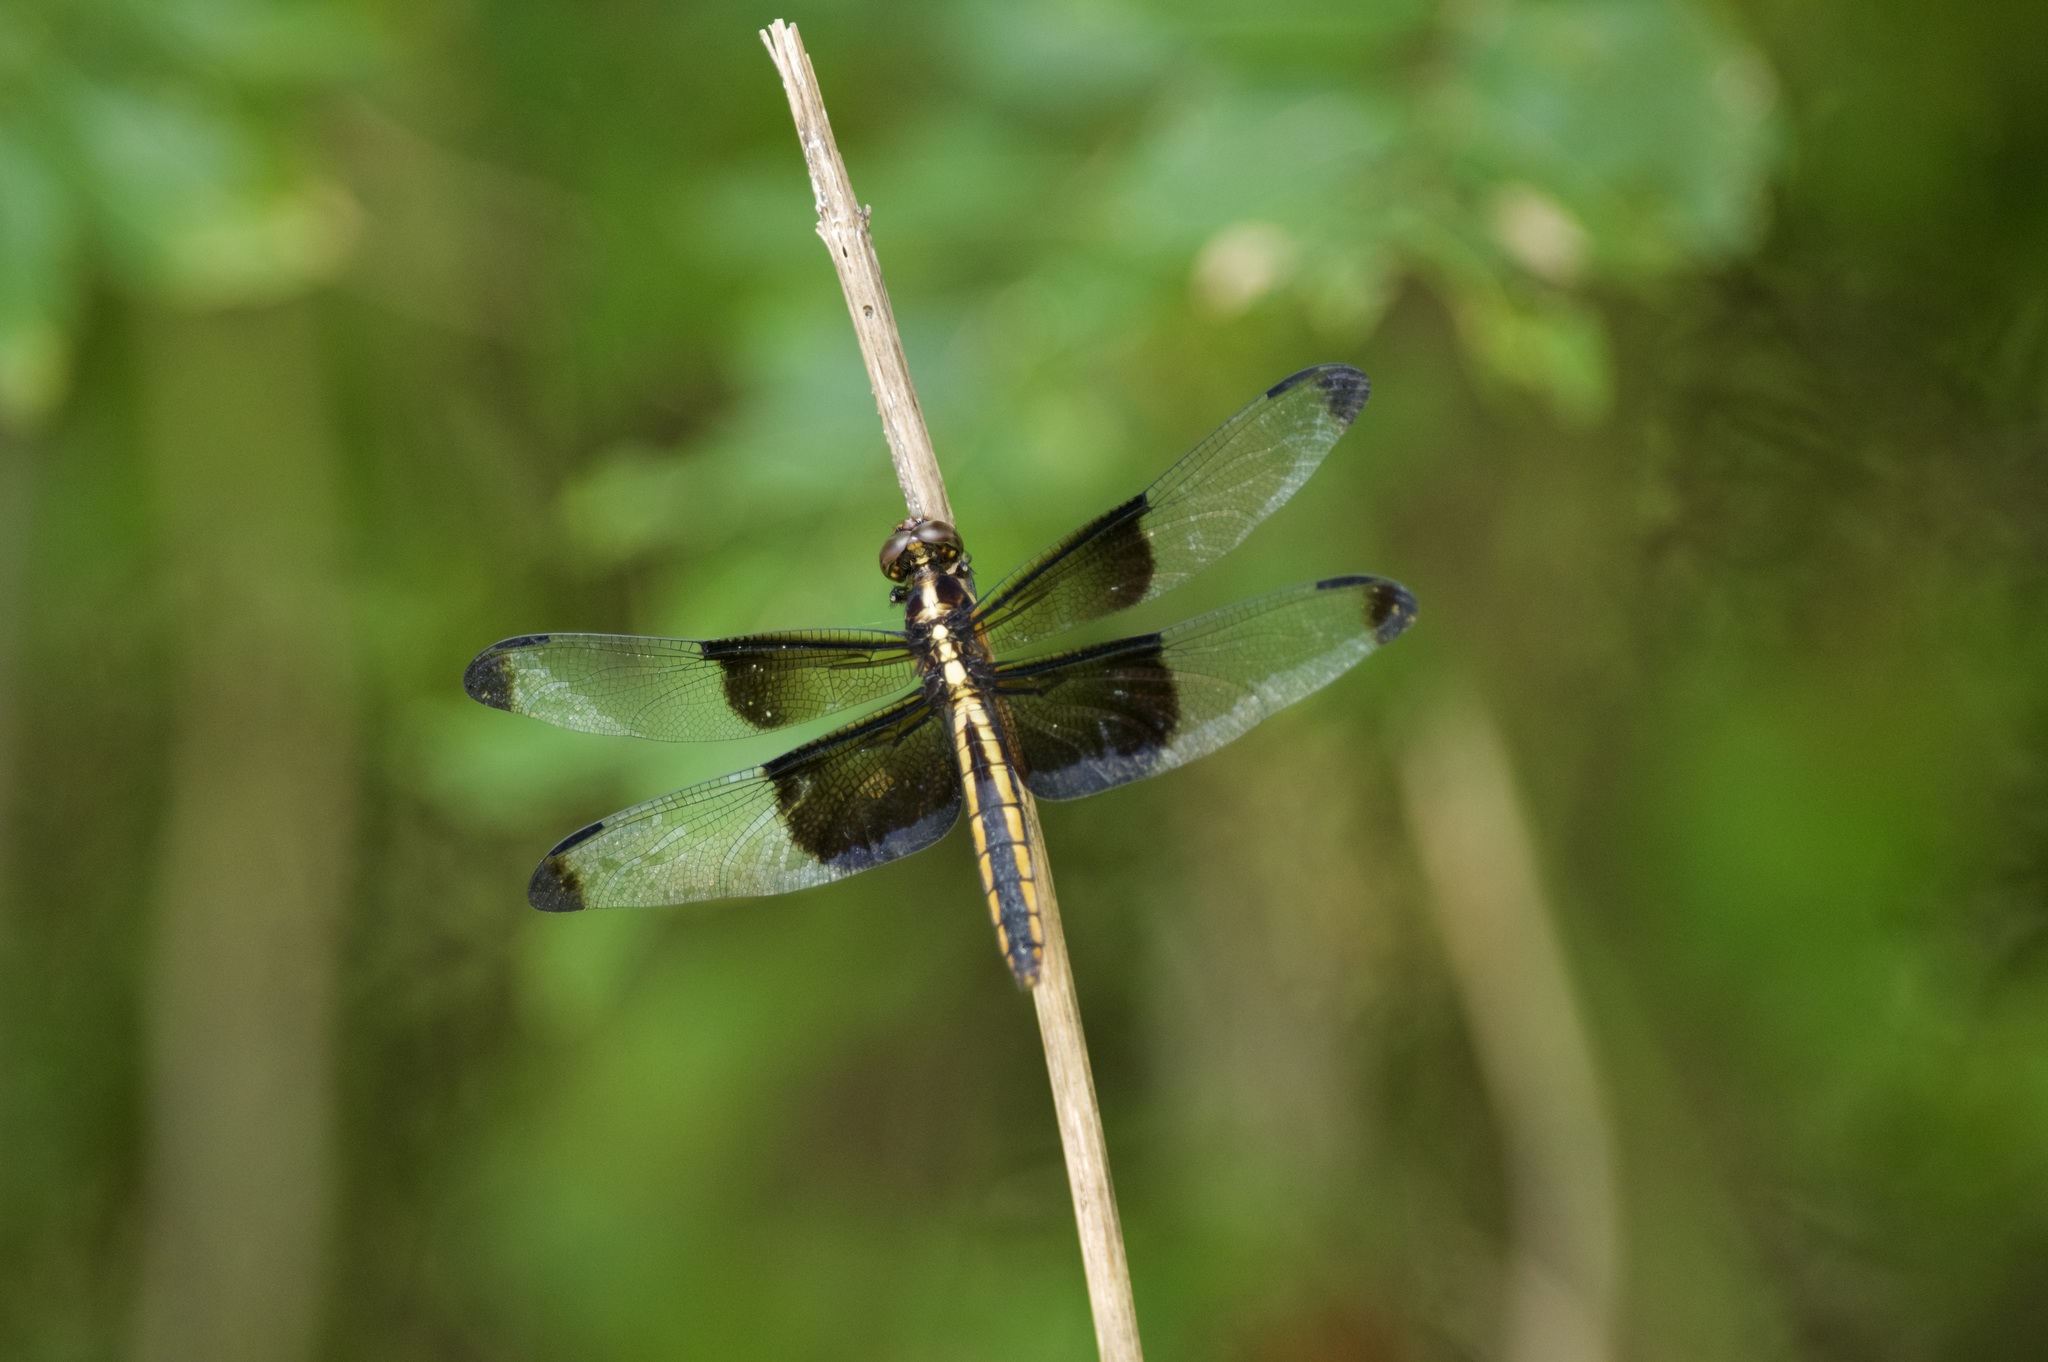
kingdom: Animalia
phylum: Arthropoda
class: Insecta
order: Odonata
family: Libellulidae
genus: Libellula
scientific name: Libellula luctuosa
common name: Widow skimmer
